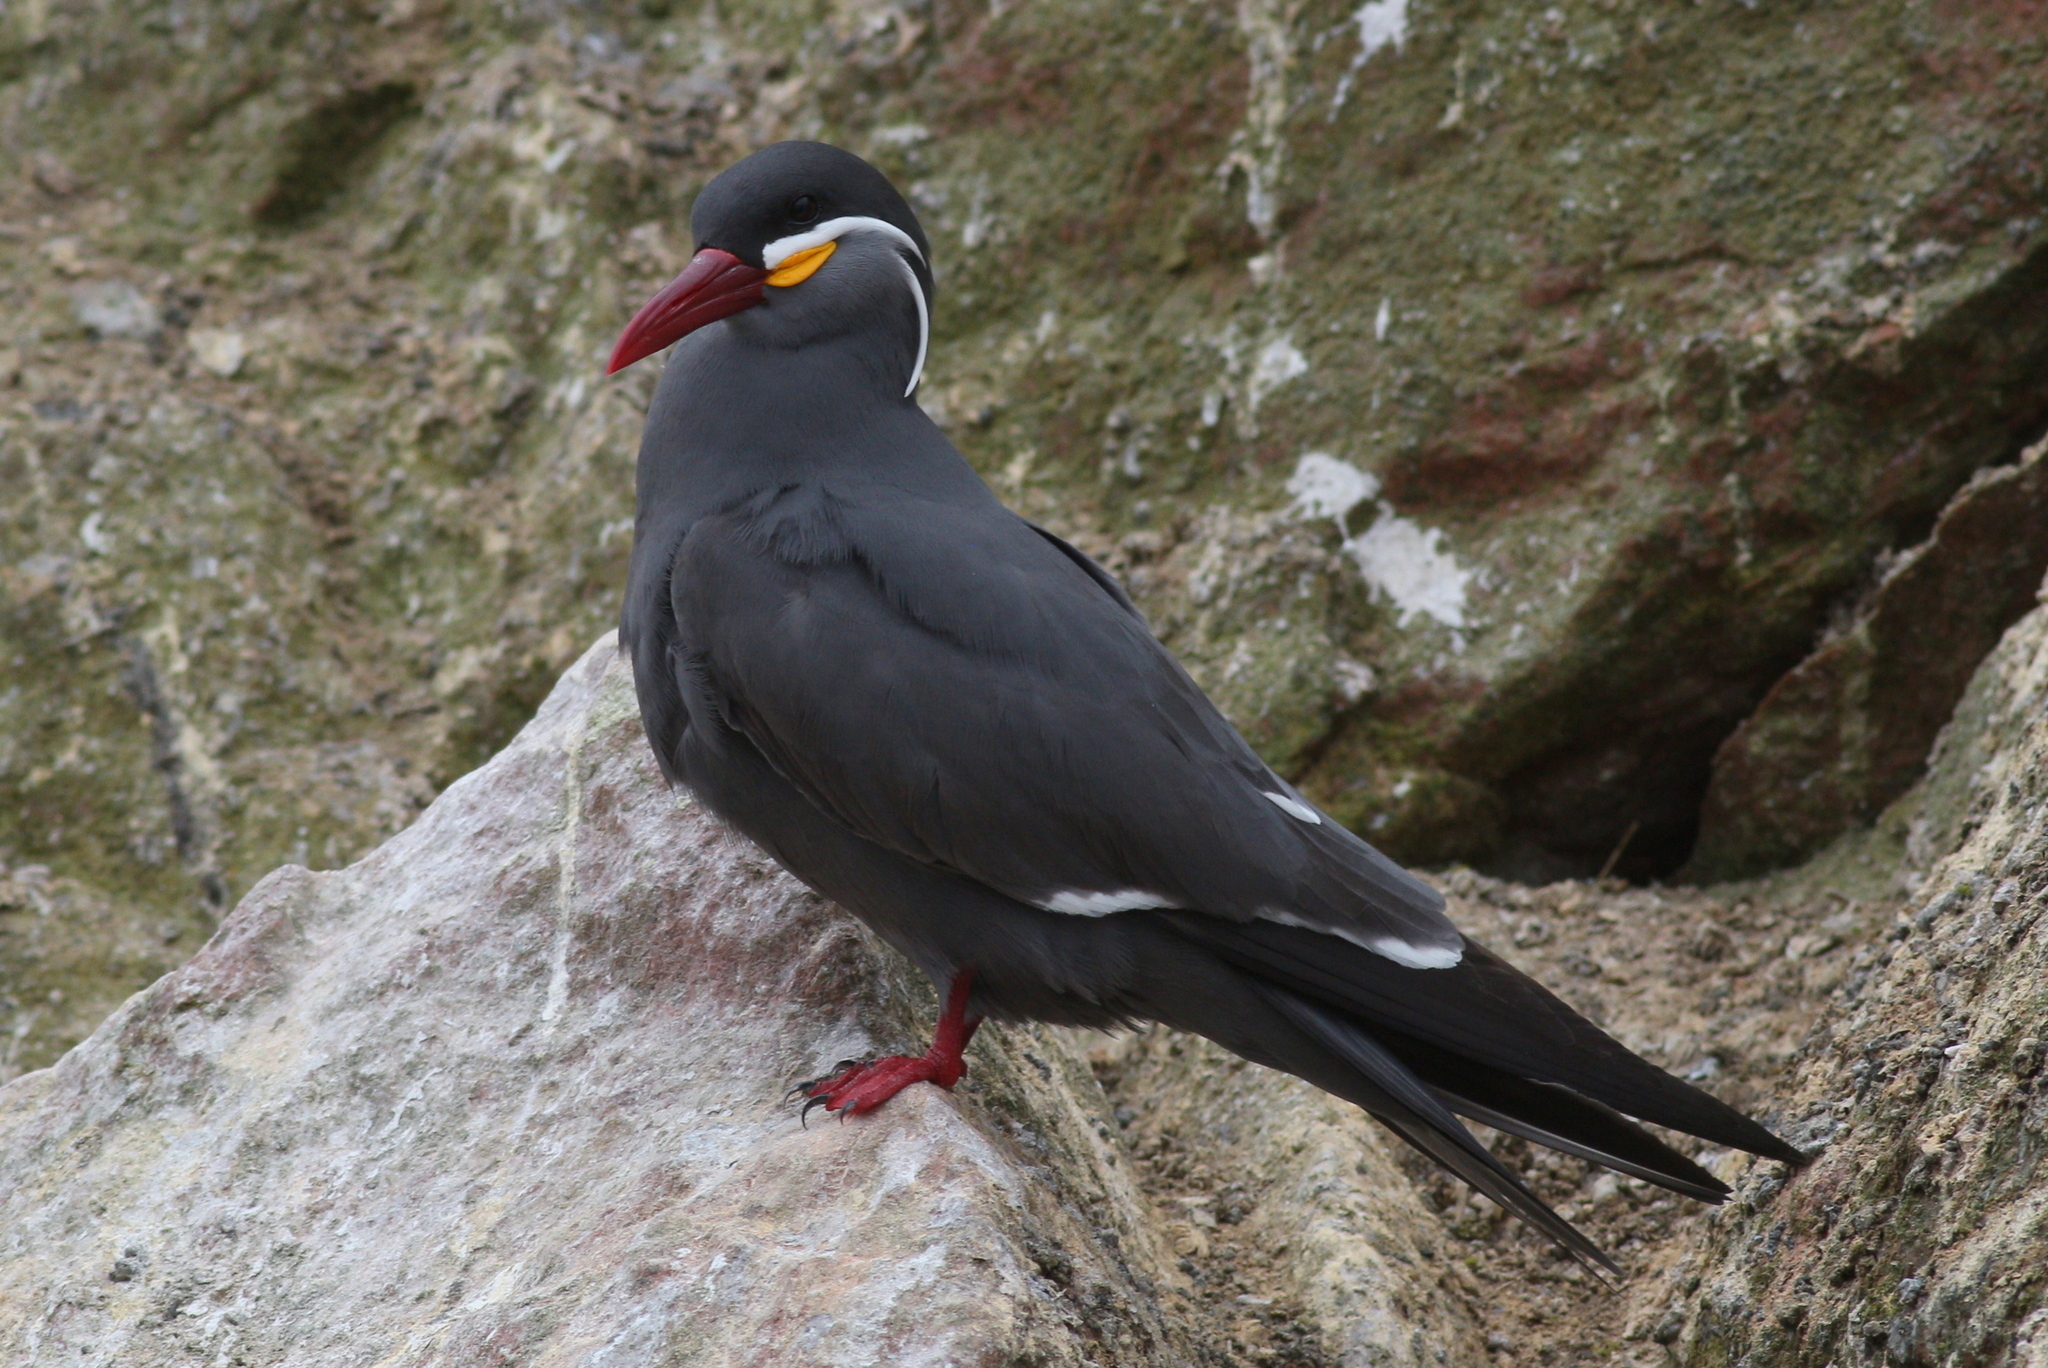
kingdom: Animalia
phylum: Chordata
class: Aves
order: Charadriiformes
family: Laridae
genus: Larosterna
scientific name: Larosterna inca
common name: Inca tern
